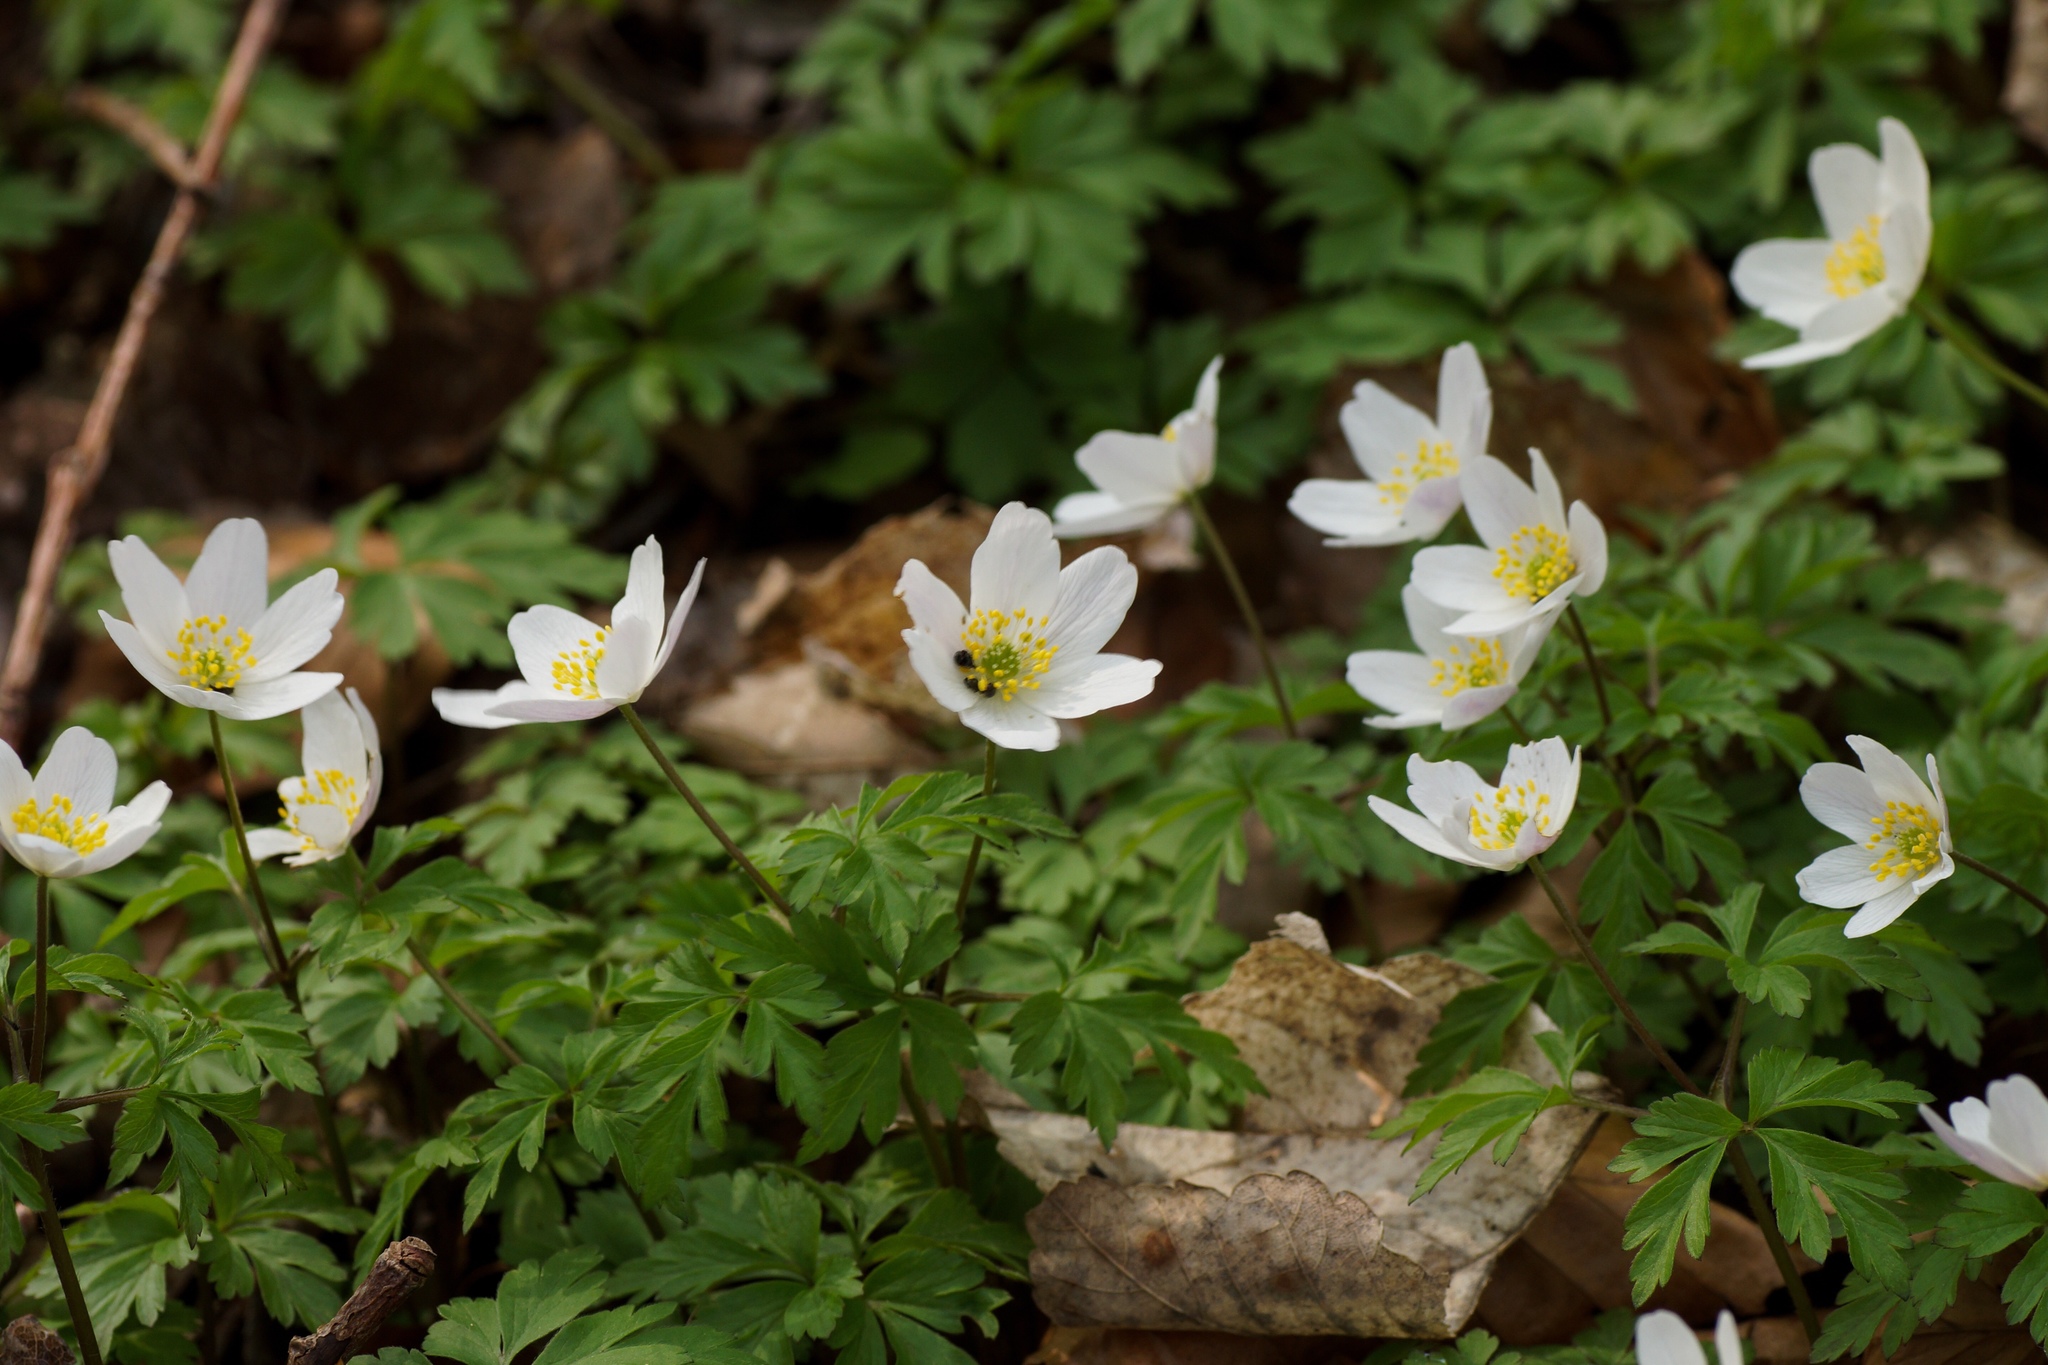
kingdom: Plantae
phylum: Tracheophyta
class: Magnoliopsida
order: Ranunculales
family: Ranunculaceae
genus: Anemone
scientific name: Anemone nemorosa
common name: Wood anemone
